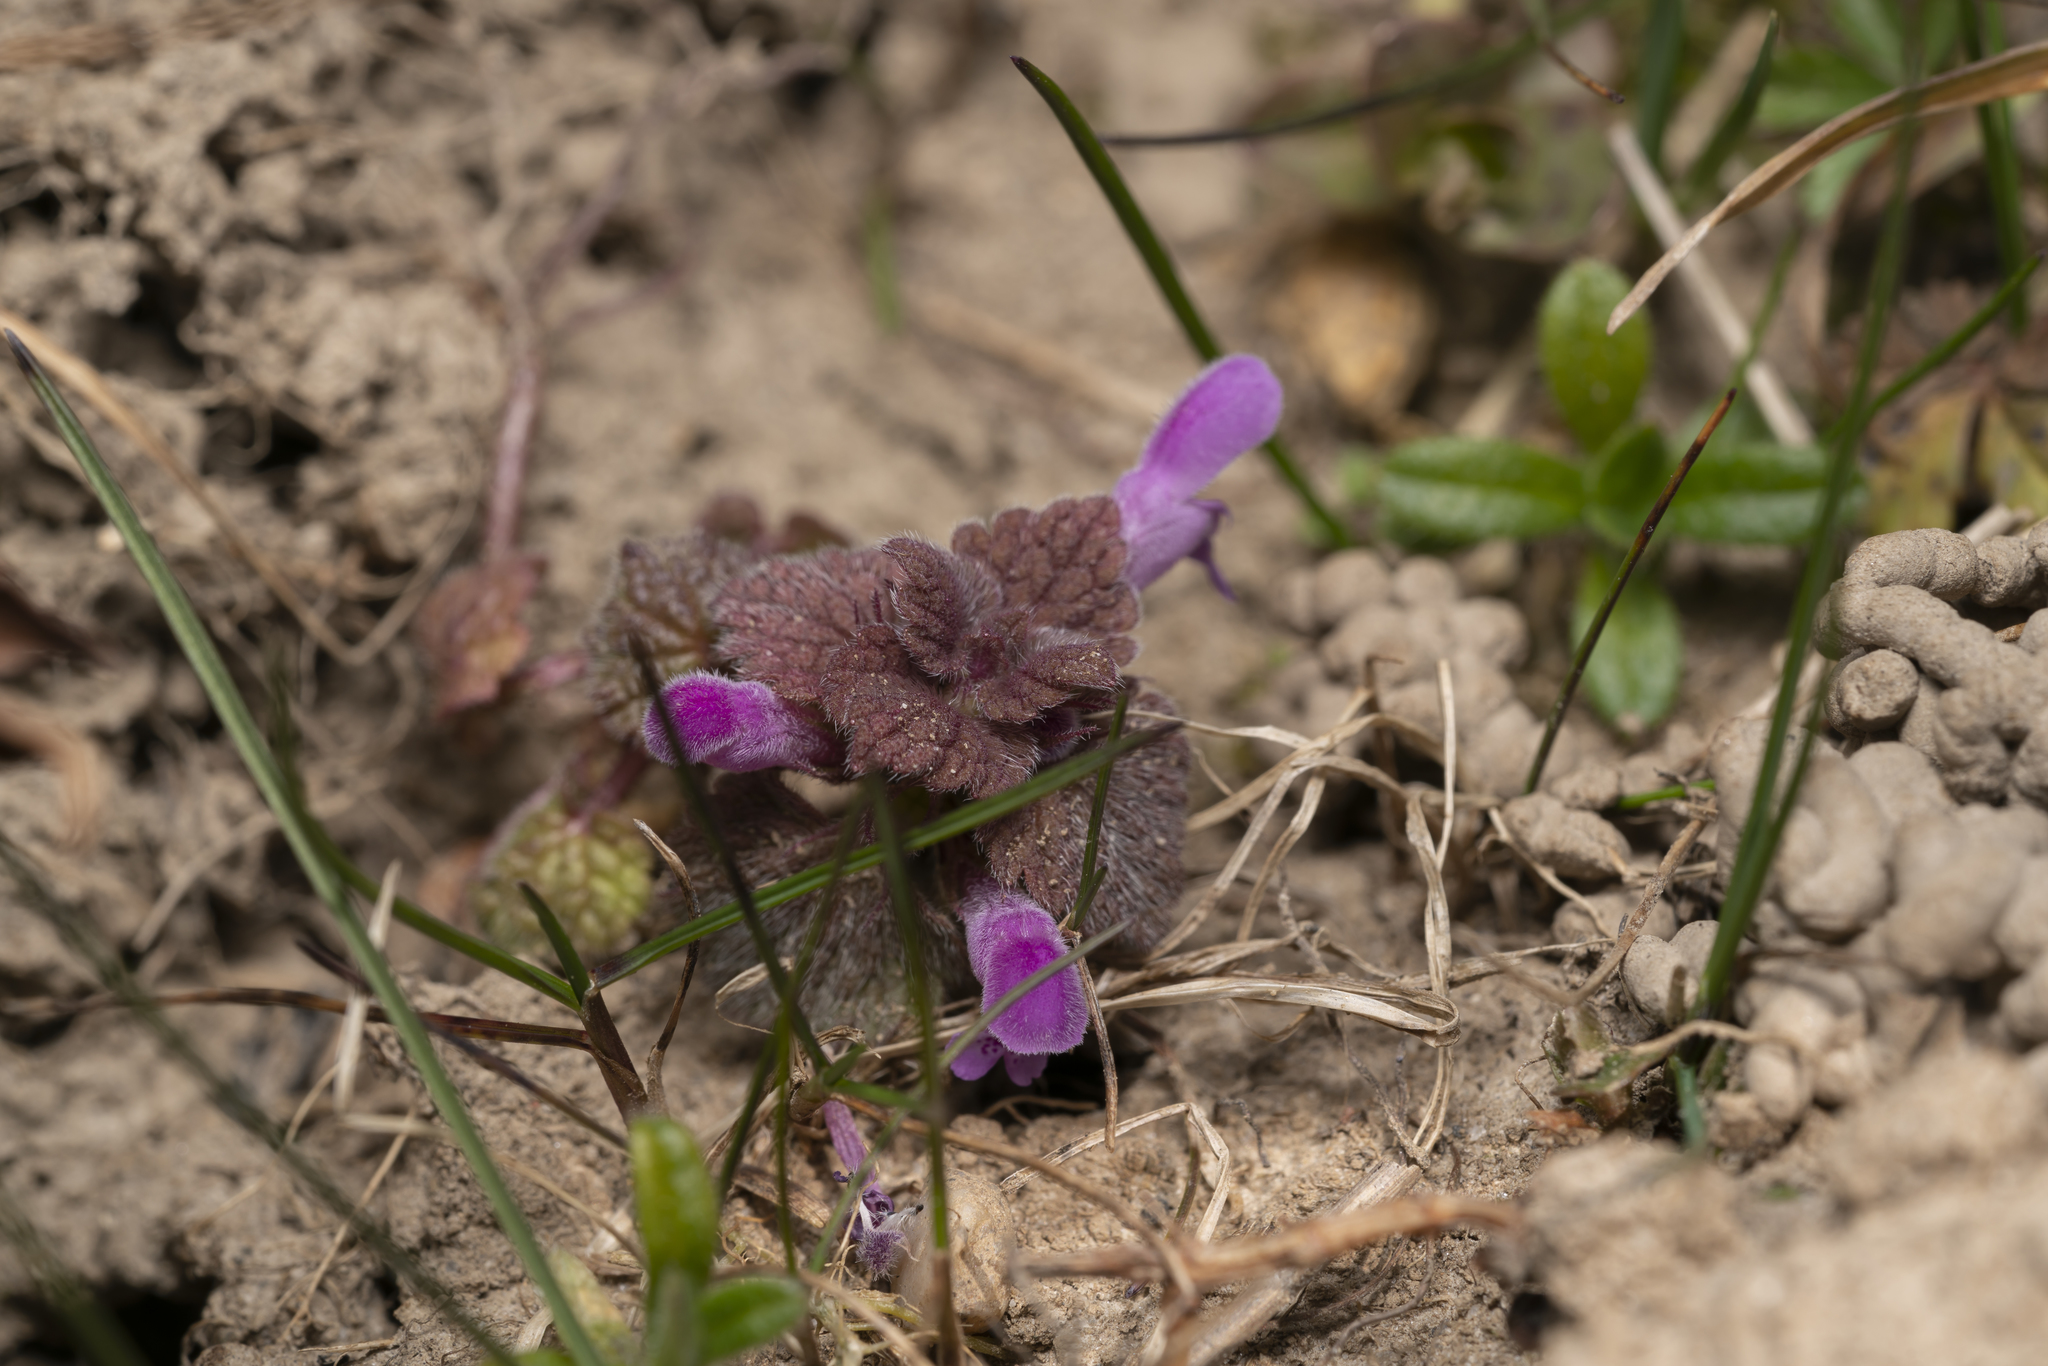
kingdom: Plantae
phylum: Tracheophyta
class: Magnoliopsida
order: Lamiales
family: Lamiaceae
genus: Lamium
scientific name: Lamium purpureum
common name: Red dead-nettle
